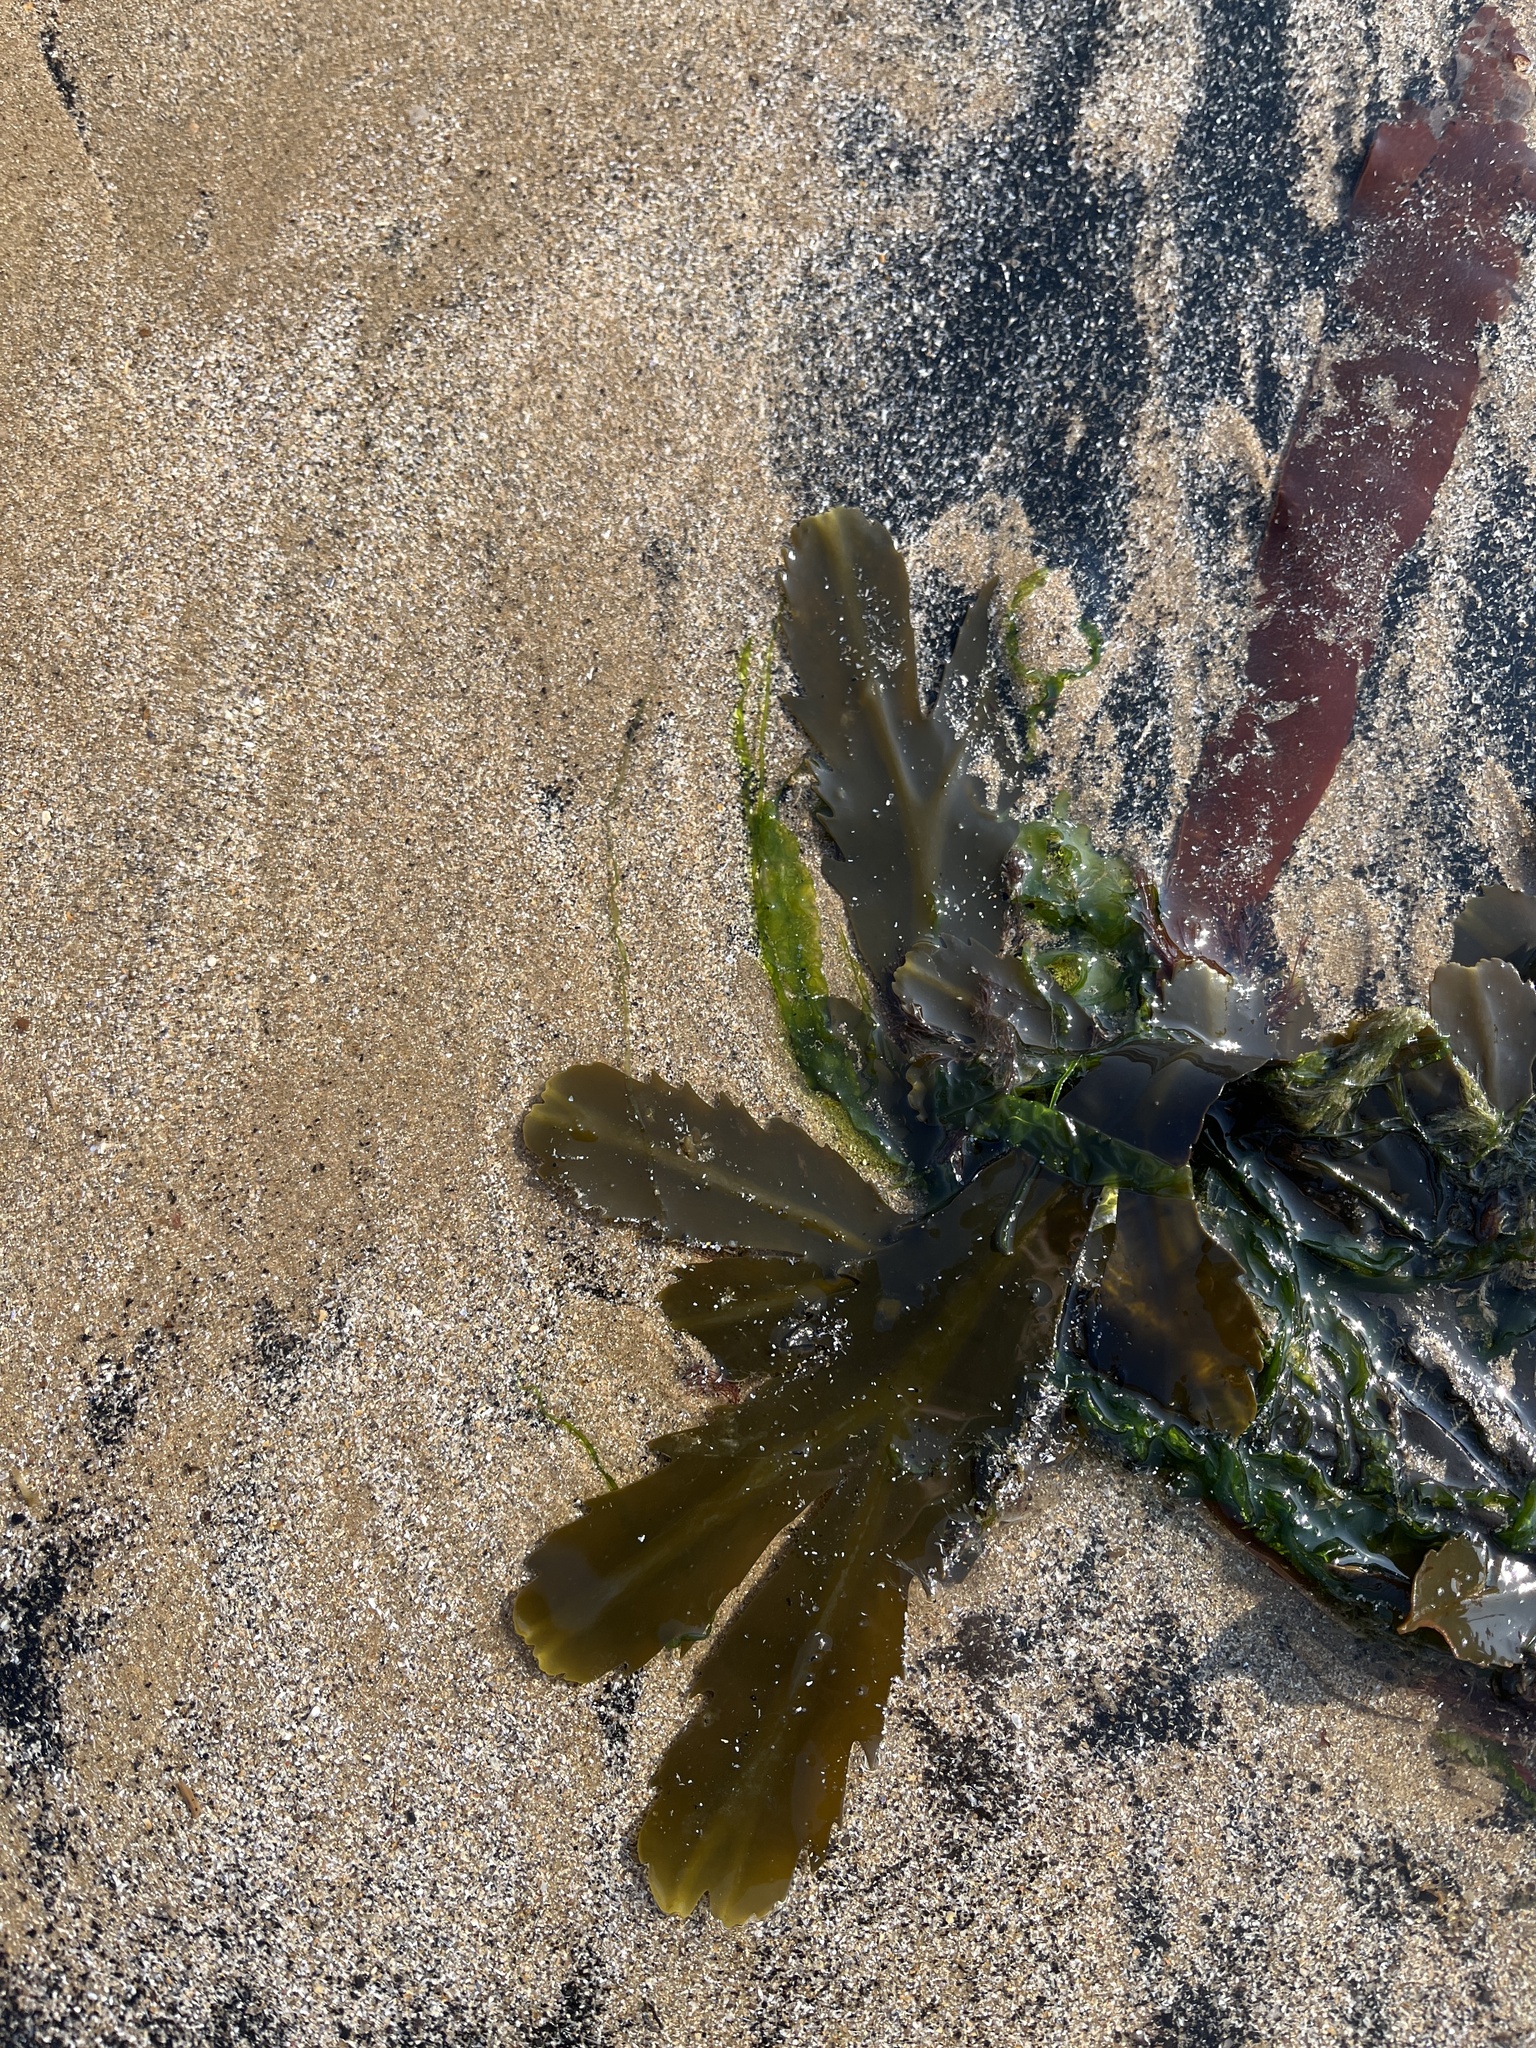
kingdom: Chromista
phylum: Ochrophyta
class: Phaeophyceae
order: Fucales
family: Fucaceae
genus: Fucus
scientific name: Fucus serratus
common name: Toothed wrack
